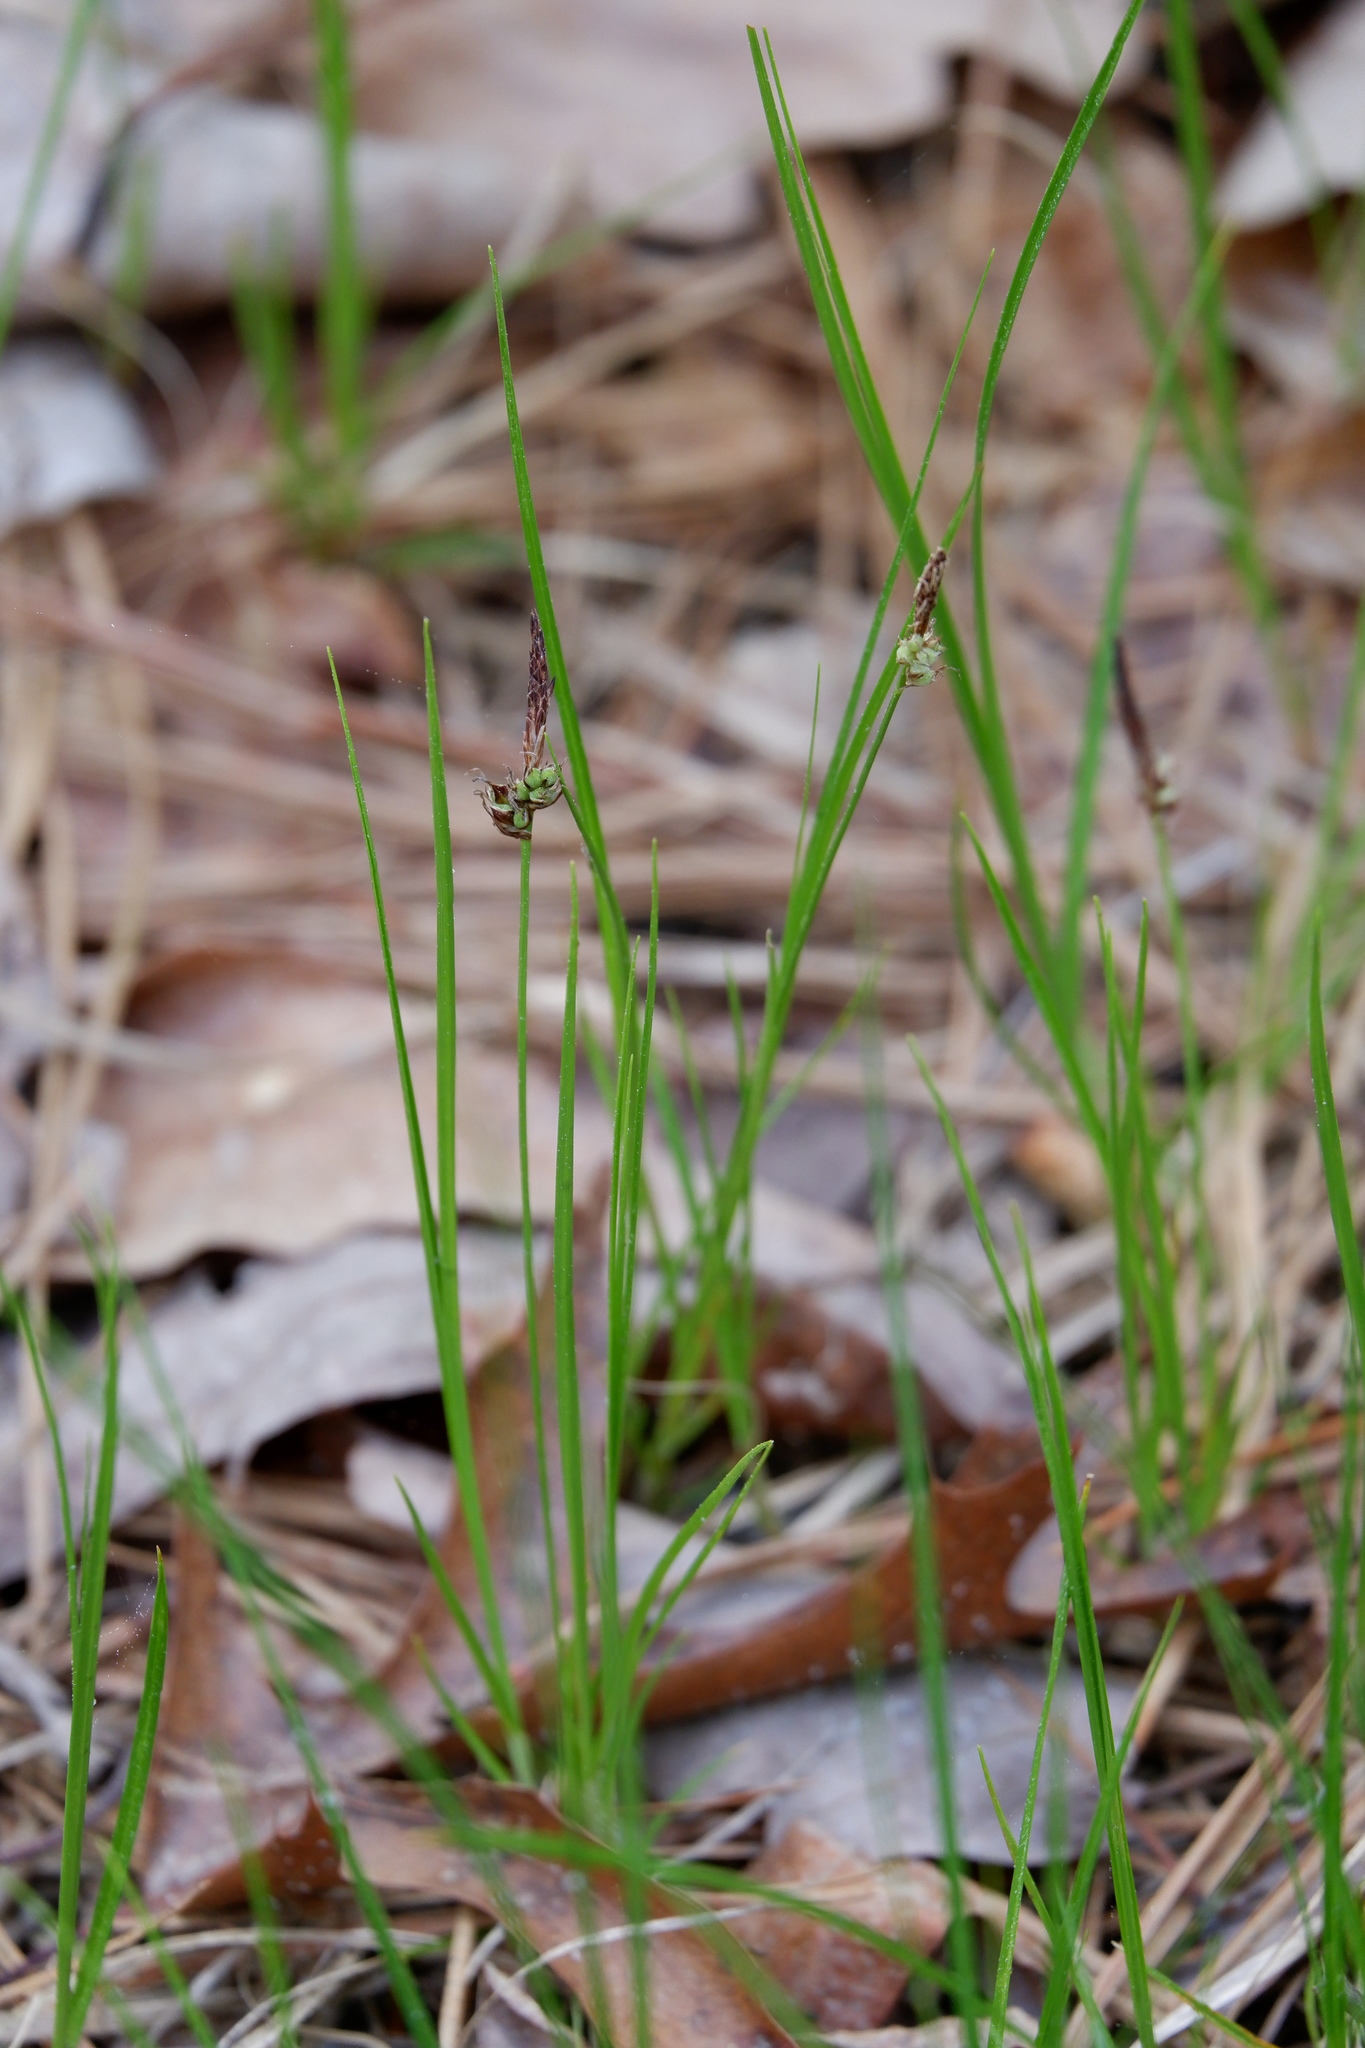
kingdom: Plantae
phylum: Tracheophyta
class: Liliopsida
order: Poales
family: Cyperaceae
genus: Carex
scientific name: Carex pensylvanica
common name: Common oak sedge
